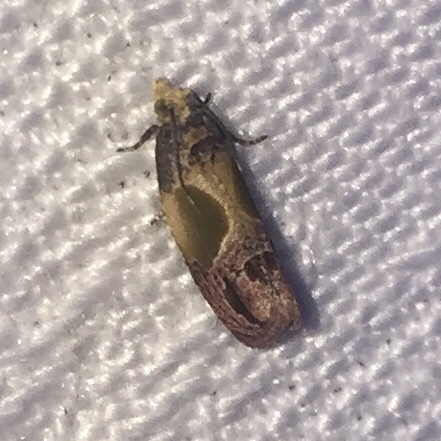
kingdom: Animalia
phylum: Arthropoda
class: Insecta
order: Lepidoptera
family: Tortricidae
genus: Eumarozia
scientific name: Eumarozia malachitana
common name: Sculptured moth
